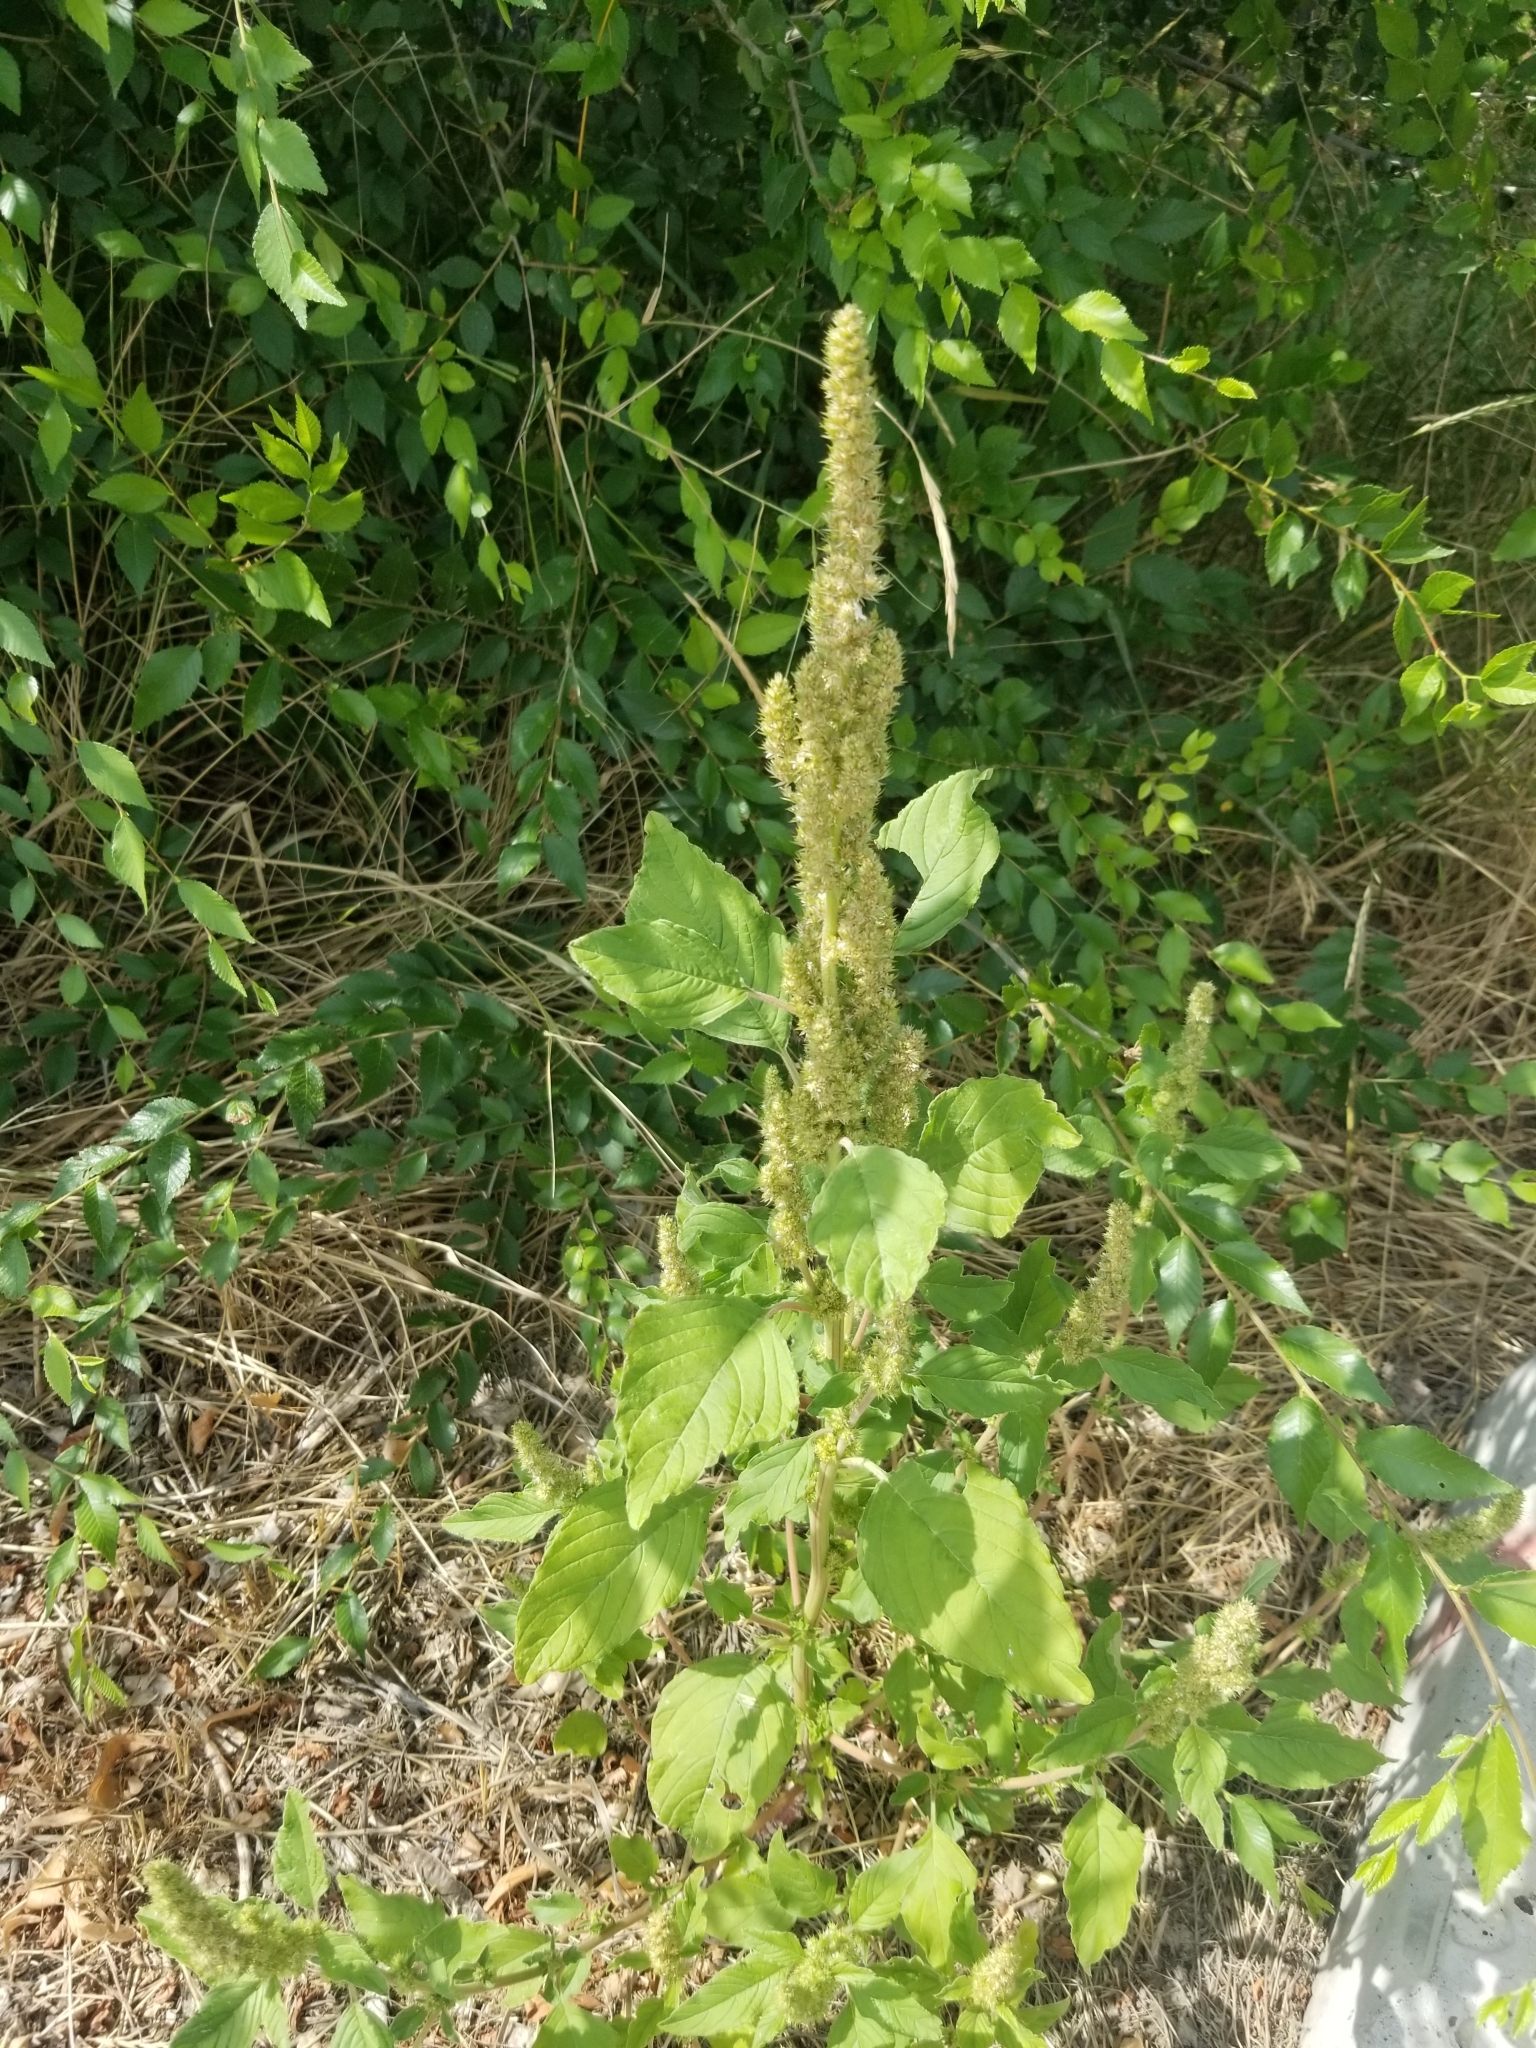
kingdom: Plantae
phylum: Tracheophyta
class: Magnoliopsida
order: Caryophyllales
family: Amaranthaceae
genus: Amaranthus
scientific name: Amaranthus retroflexus
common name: Redroot amaranth
